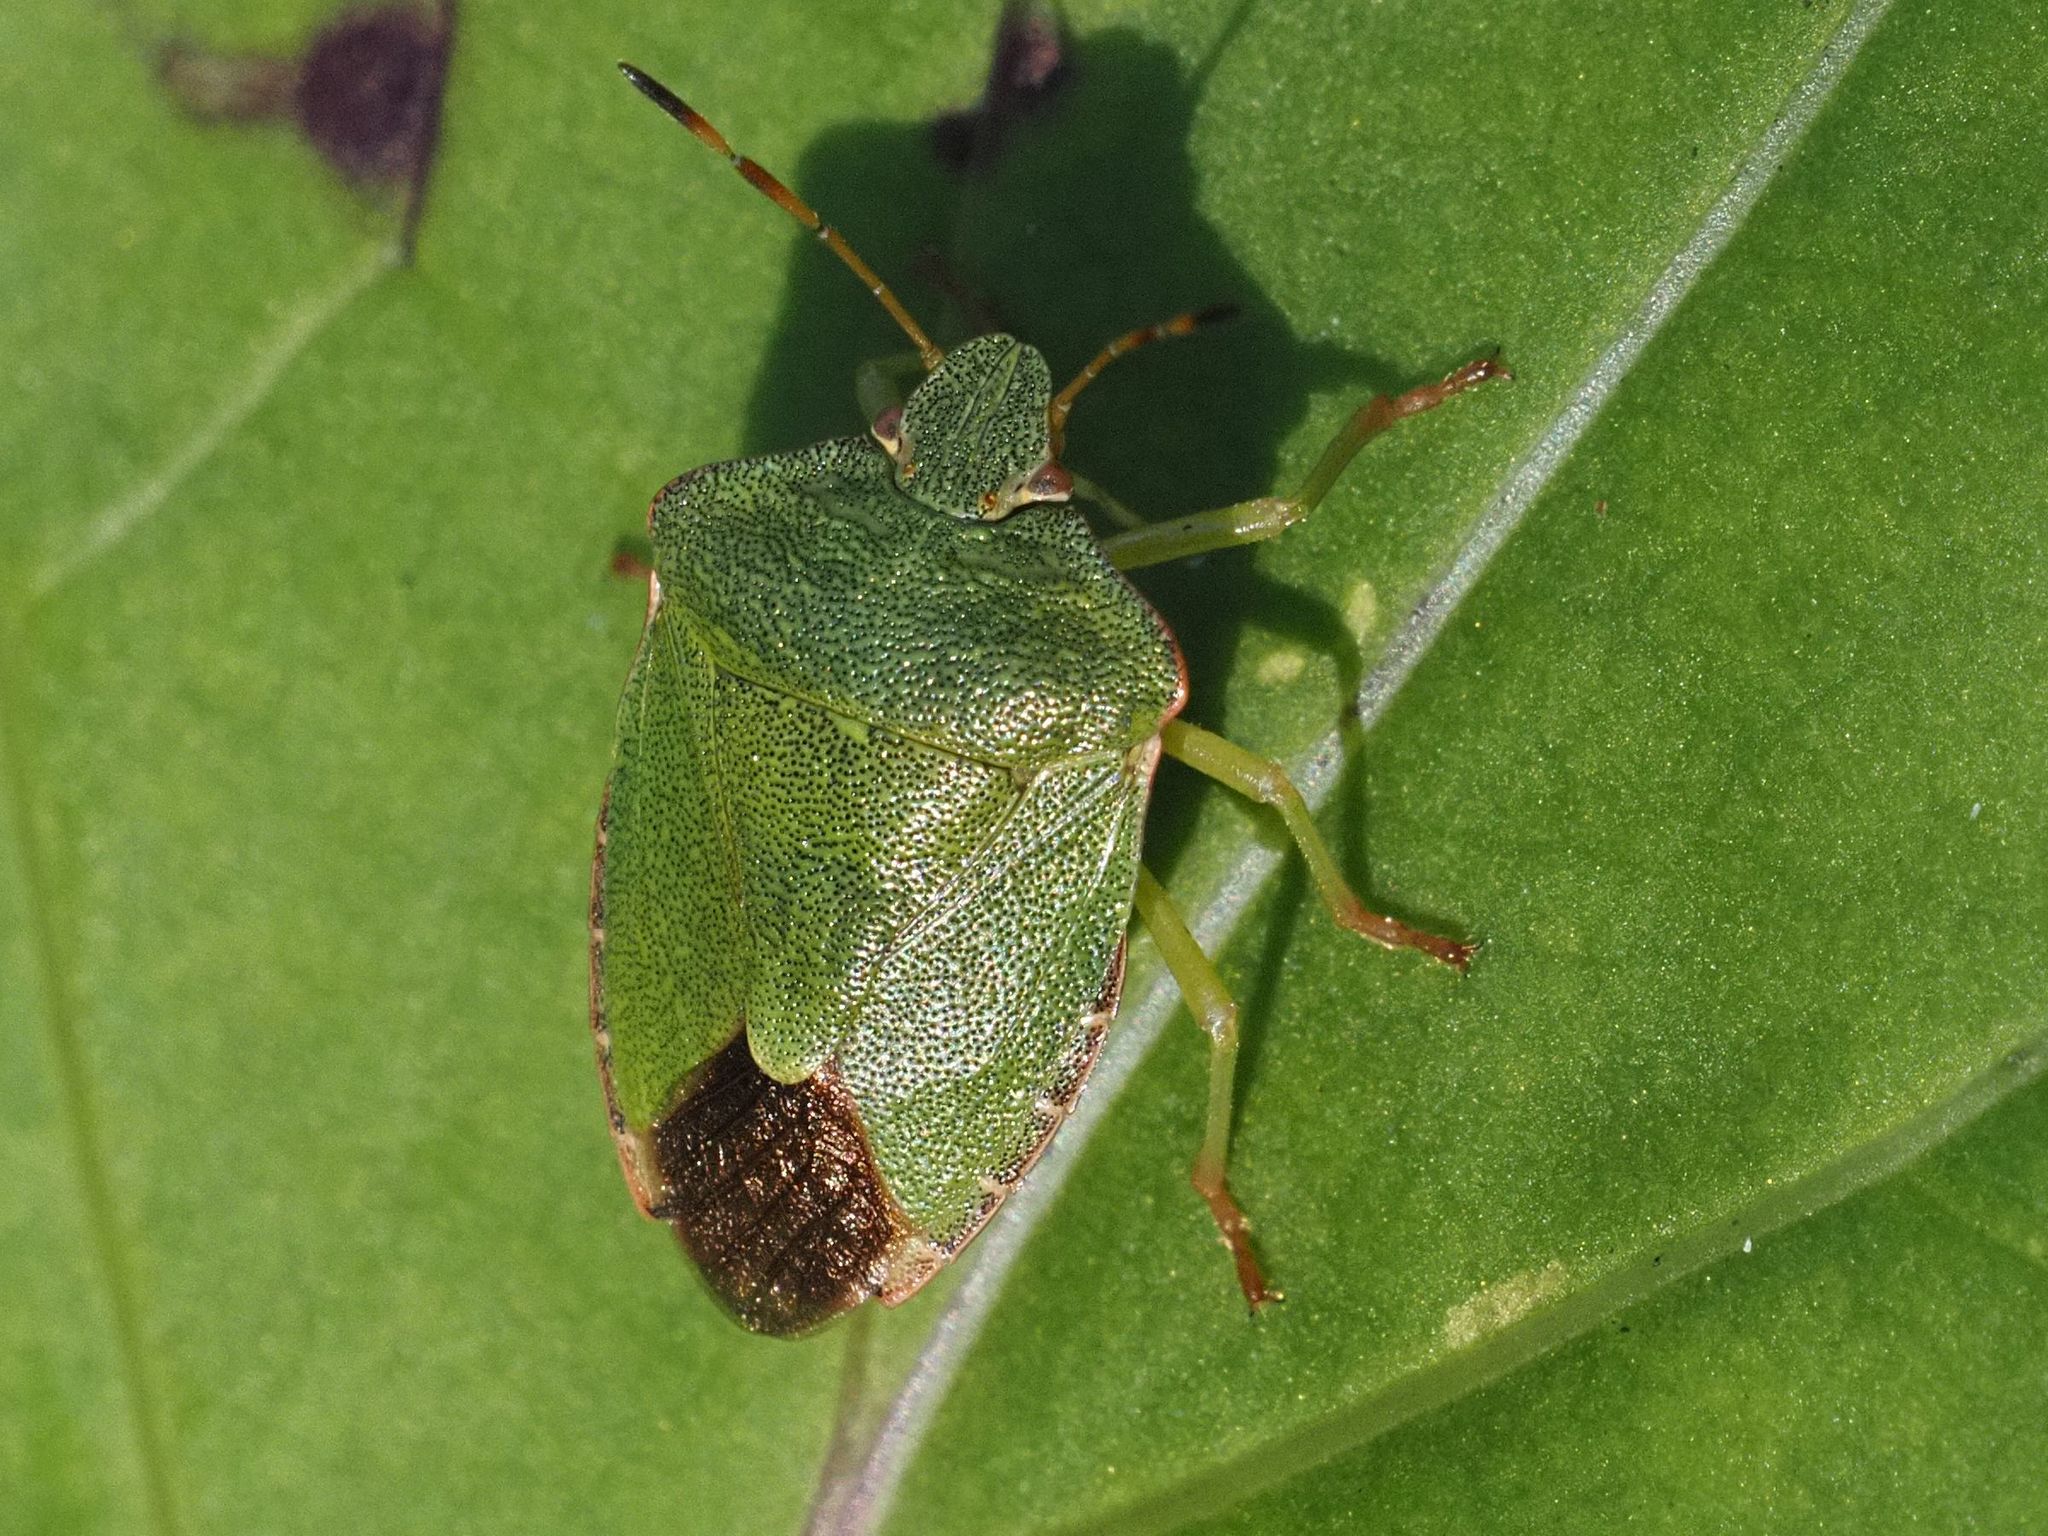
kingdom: Animalia
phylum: Arthropoda
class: Insecta
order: Hemiptera
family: Pentatomidae
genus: Palomena
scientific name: Palomena prasina
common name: Green shieldbug
